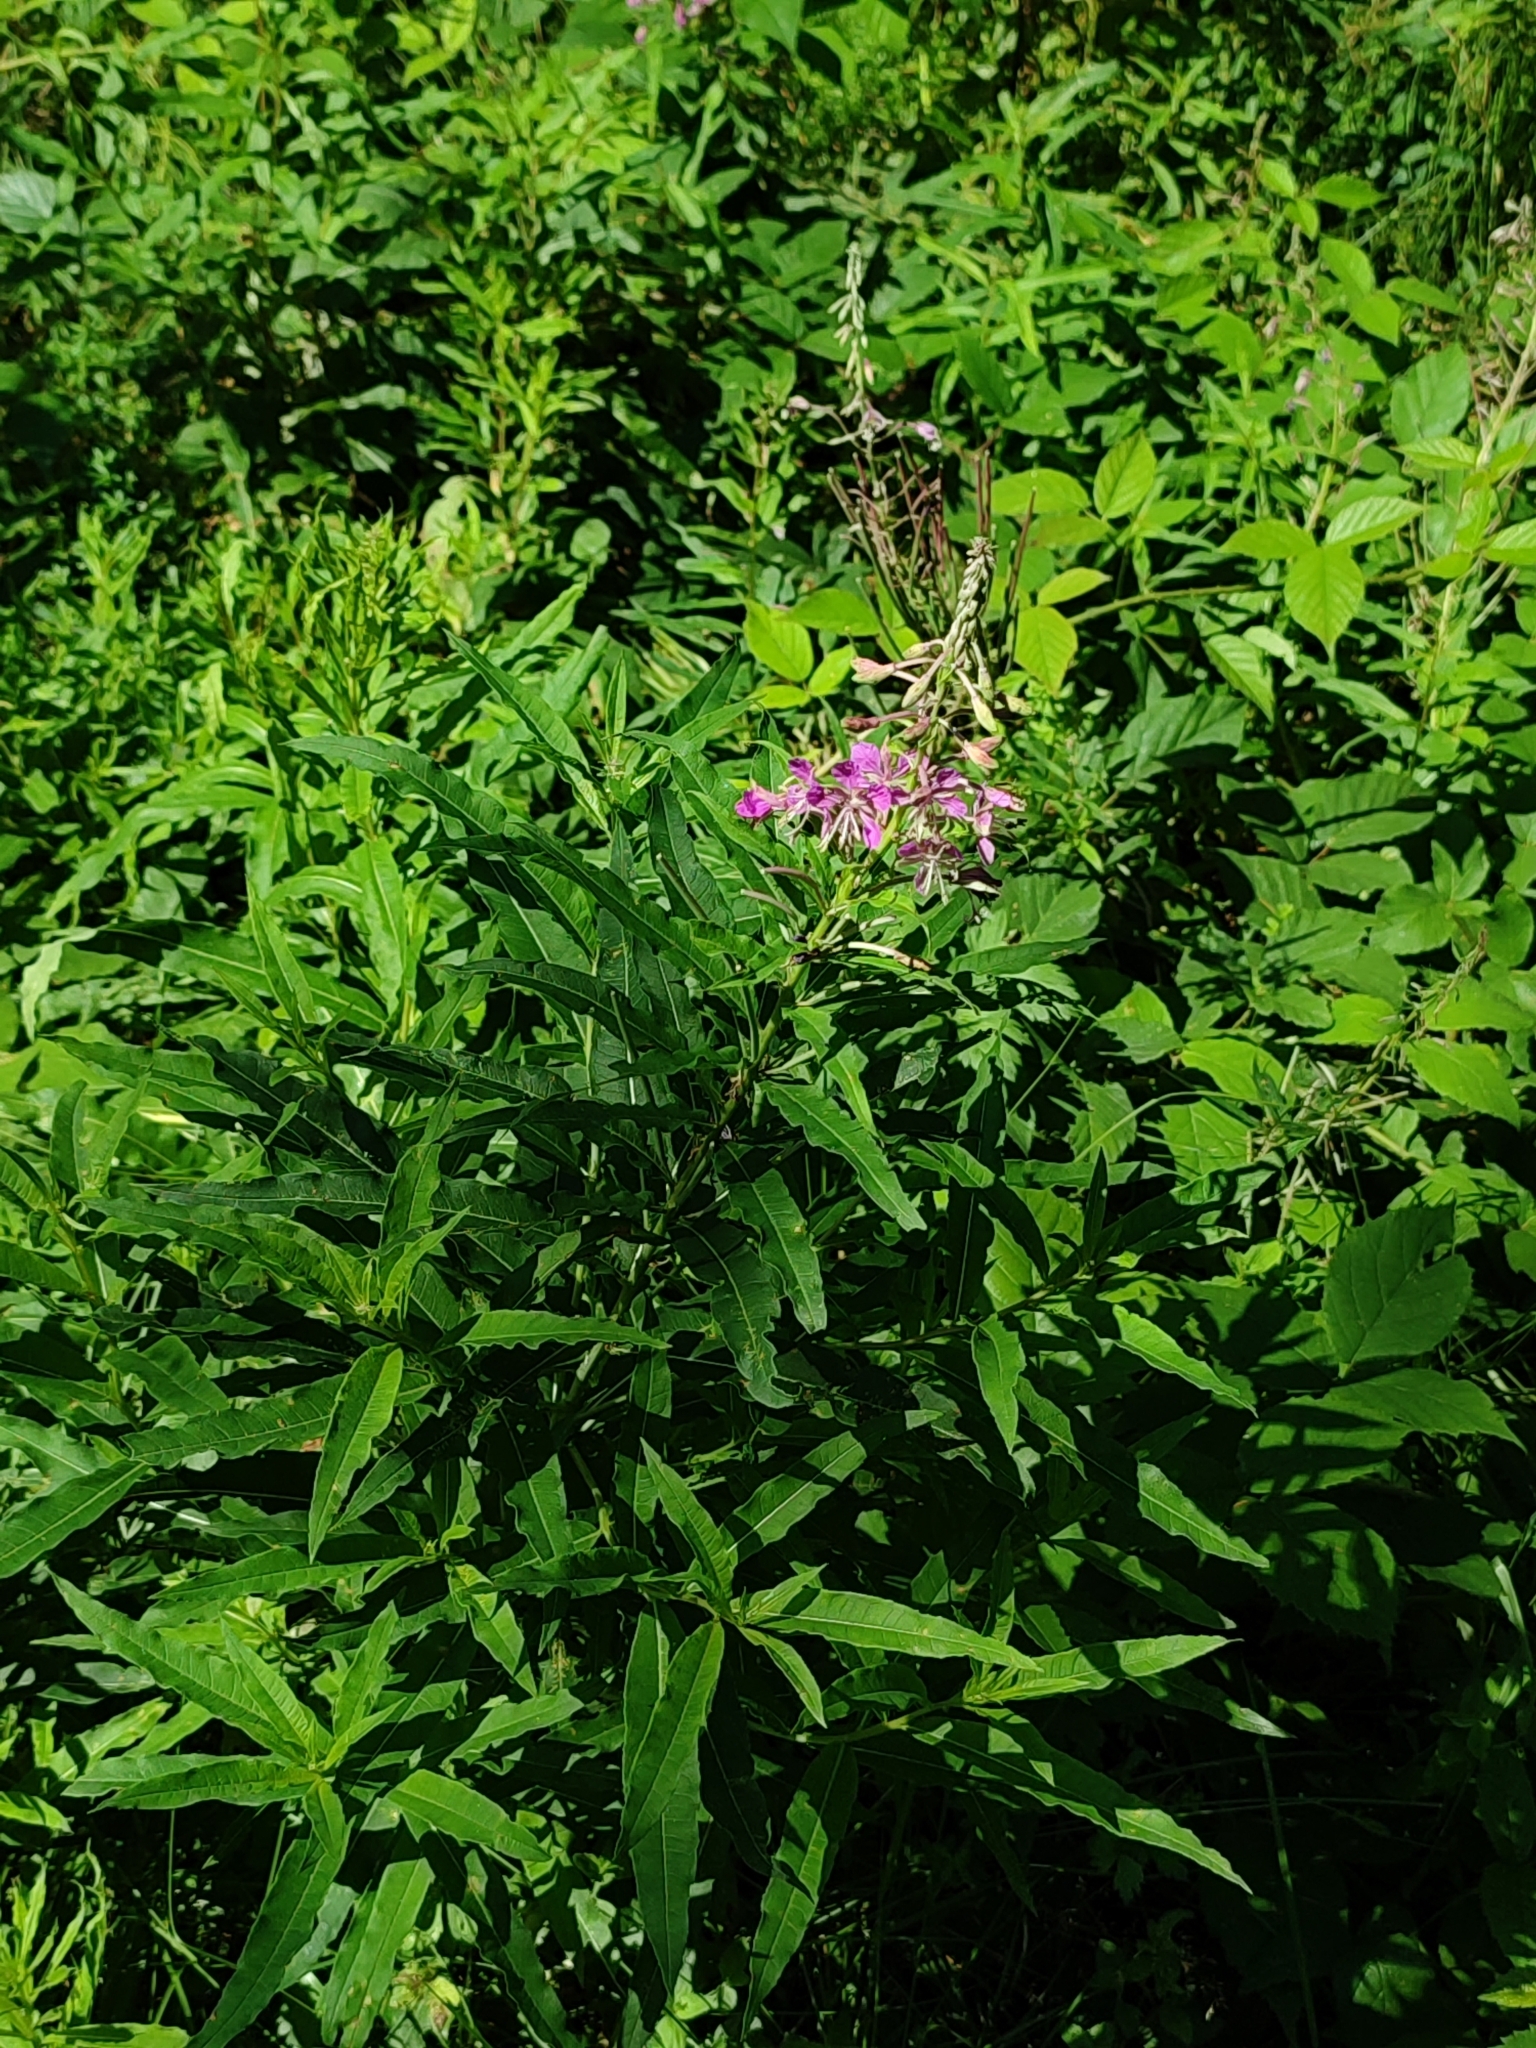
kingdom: Plantae
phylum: Tracheophyta
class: Magnoliopsida
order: Myrtales
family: Onagraceae
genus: Chamaenerion
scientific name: Chamaenerion angustifolium
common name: Fireweed
